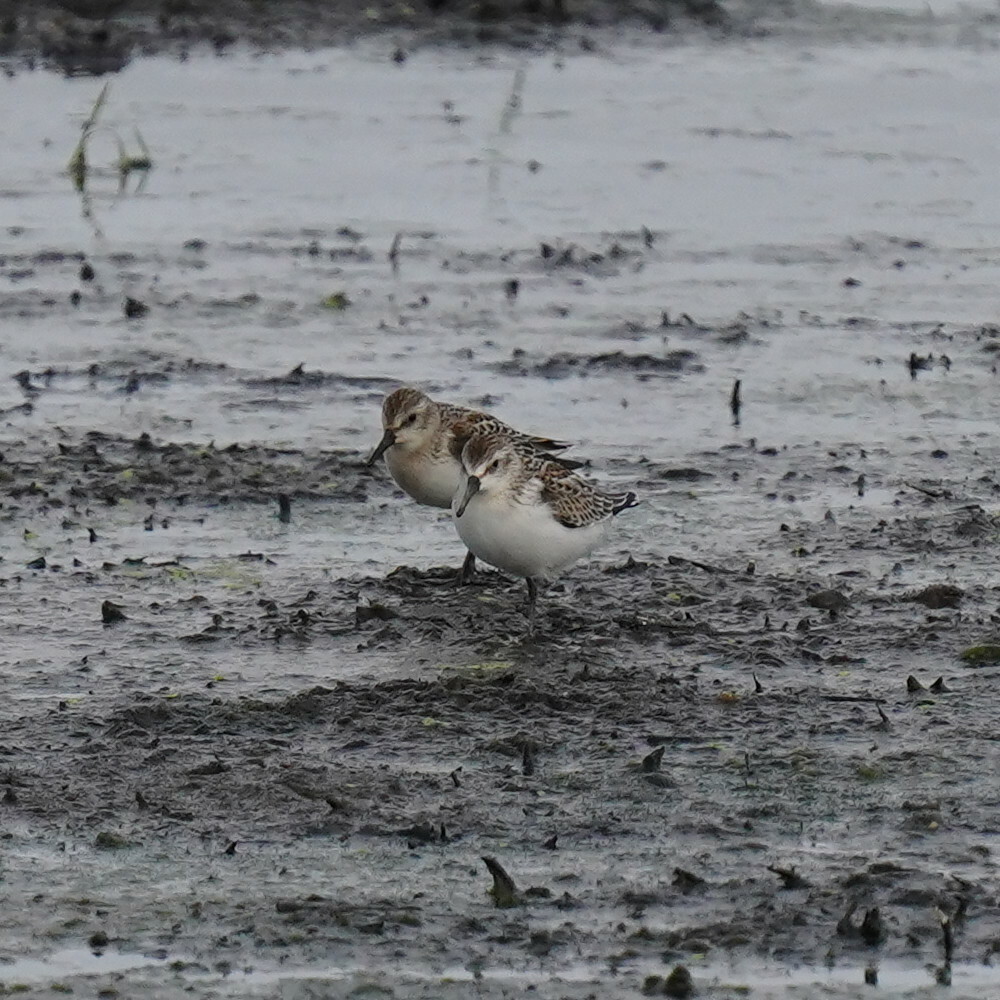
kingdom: Animalia
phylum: Chordata
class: Aves
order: Charadriiformes
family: Scolopacidae
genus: Calidris
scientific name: Calidris mauri
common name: Western sandpiper
